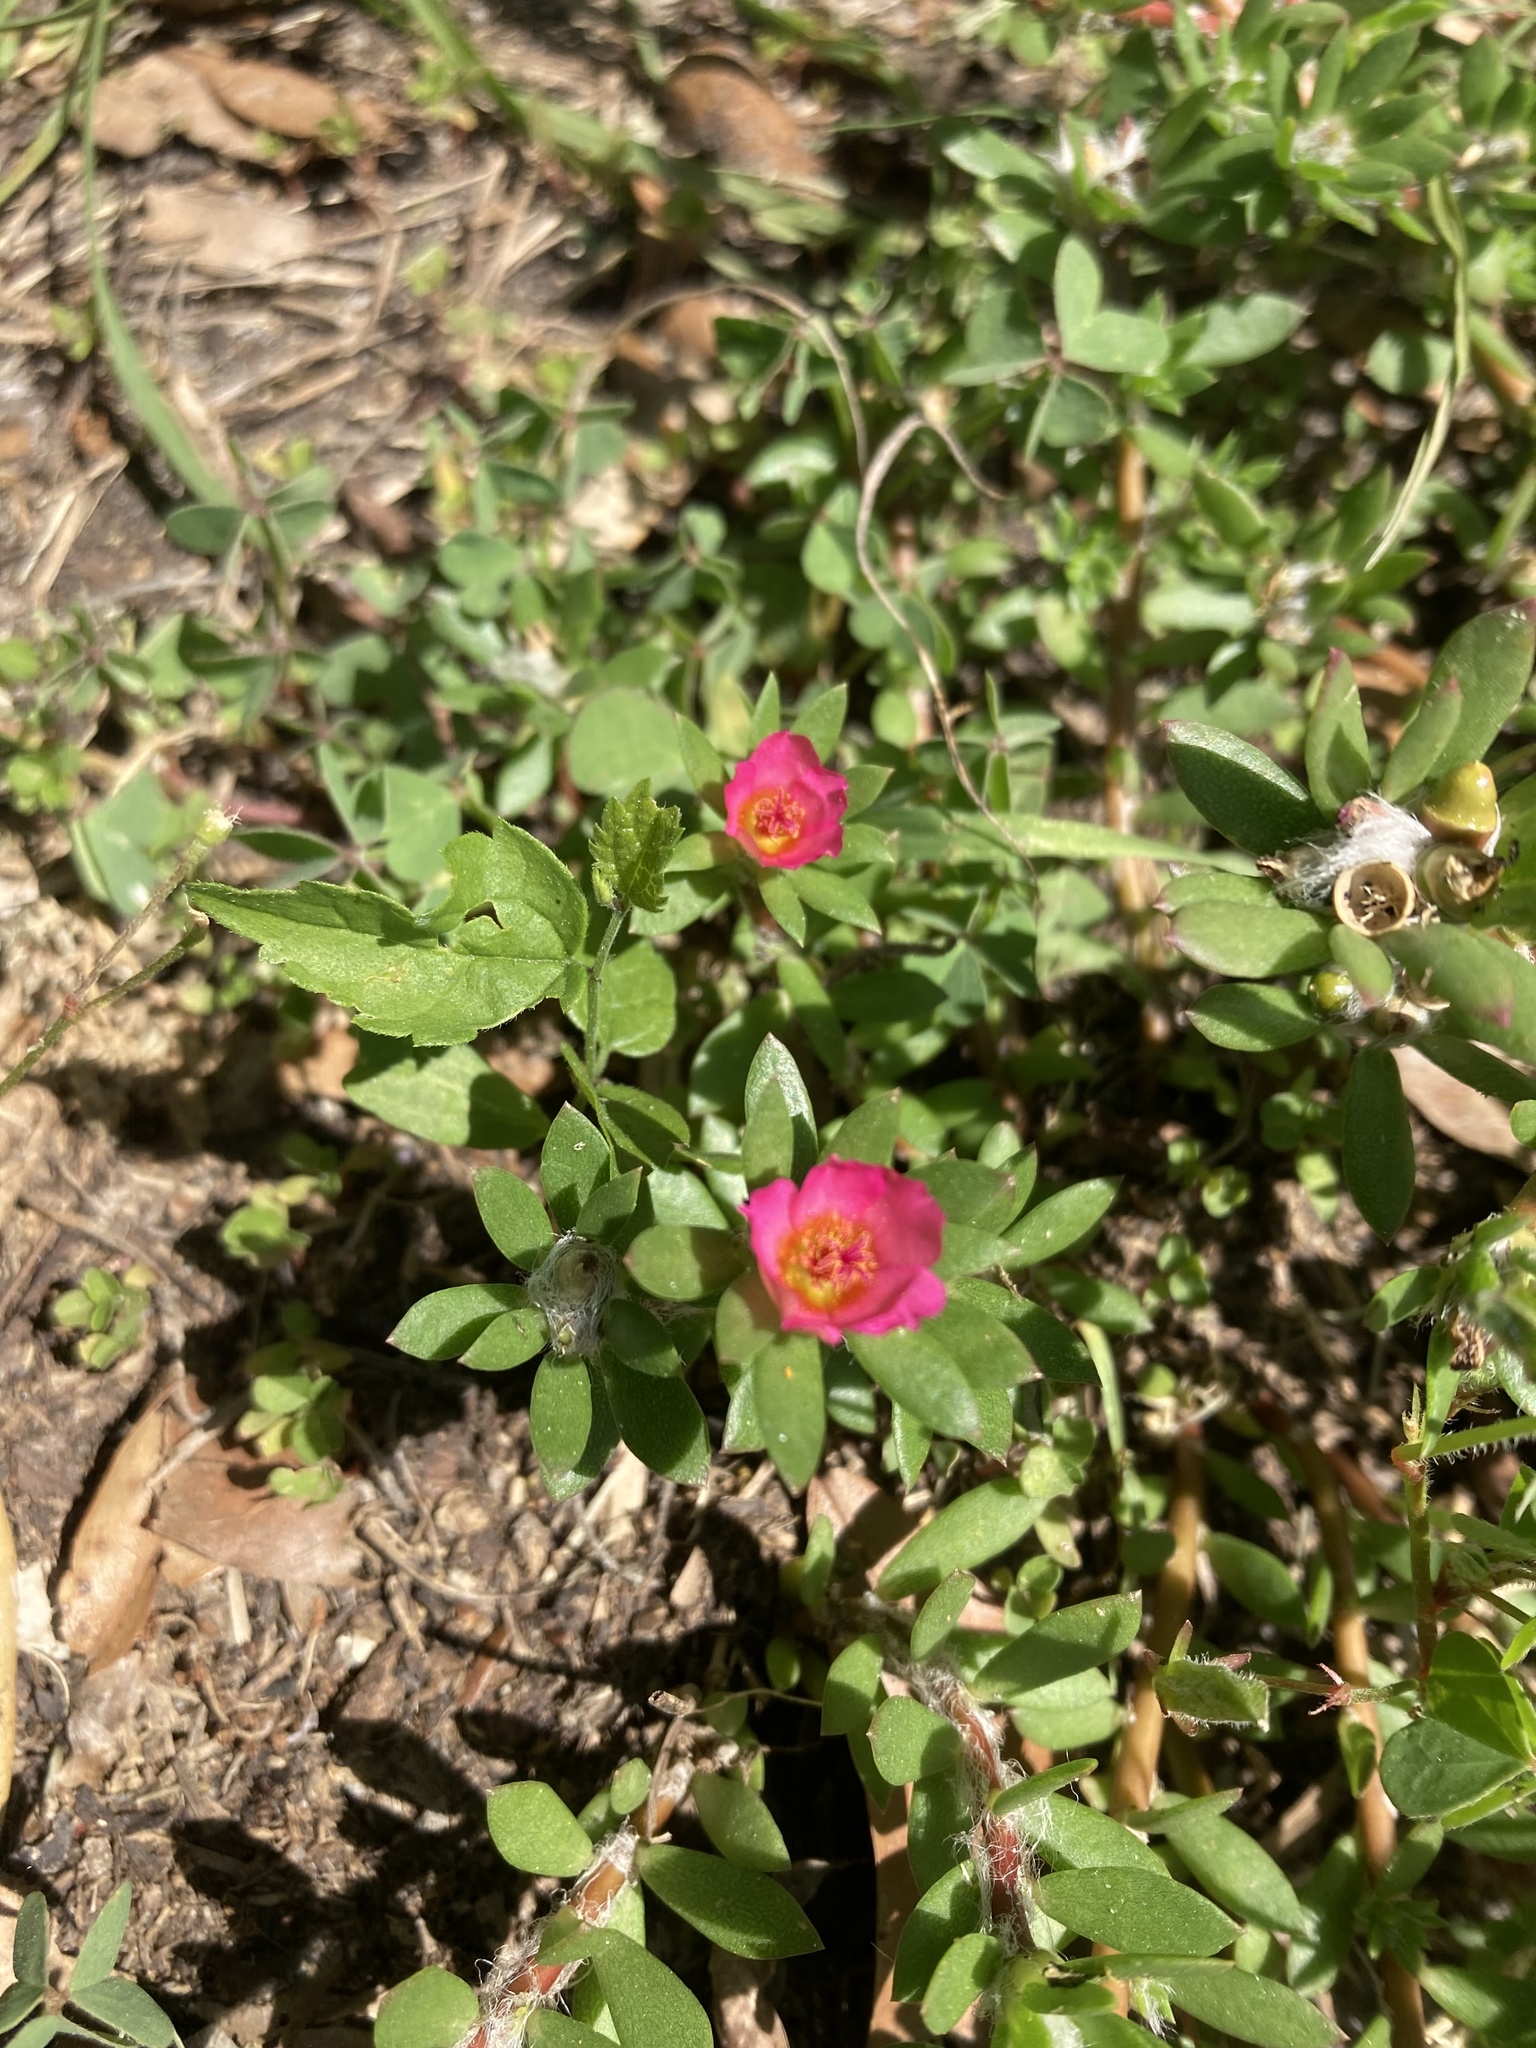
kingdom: Plantae
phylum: Tracheophyta
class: Magnoliopsida
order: Caryophyllales
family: Portulacaceae
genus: Portulaca
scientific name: Portulaca amilis
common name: Paraguayan purslane
